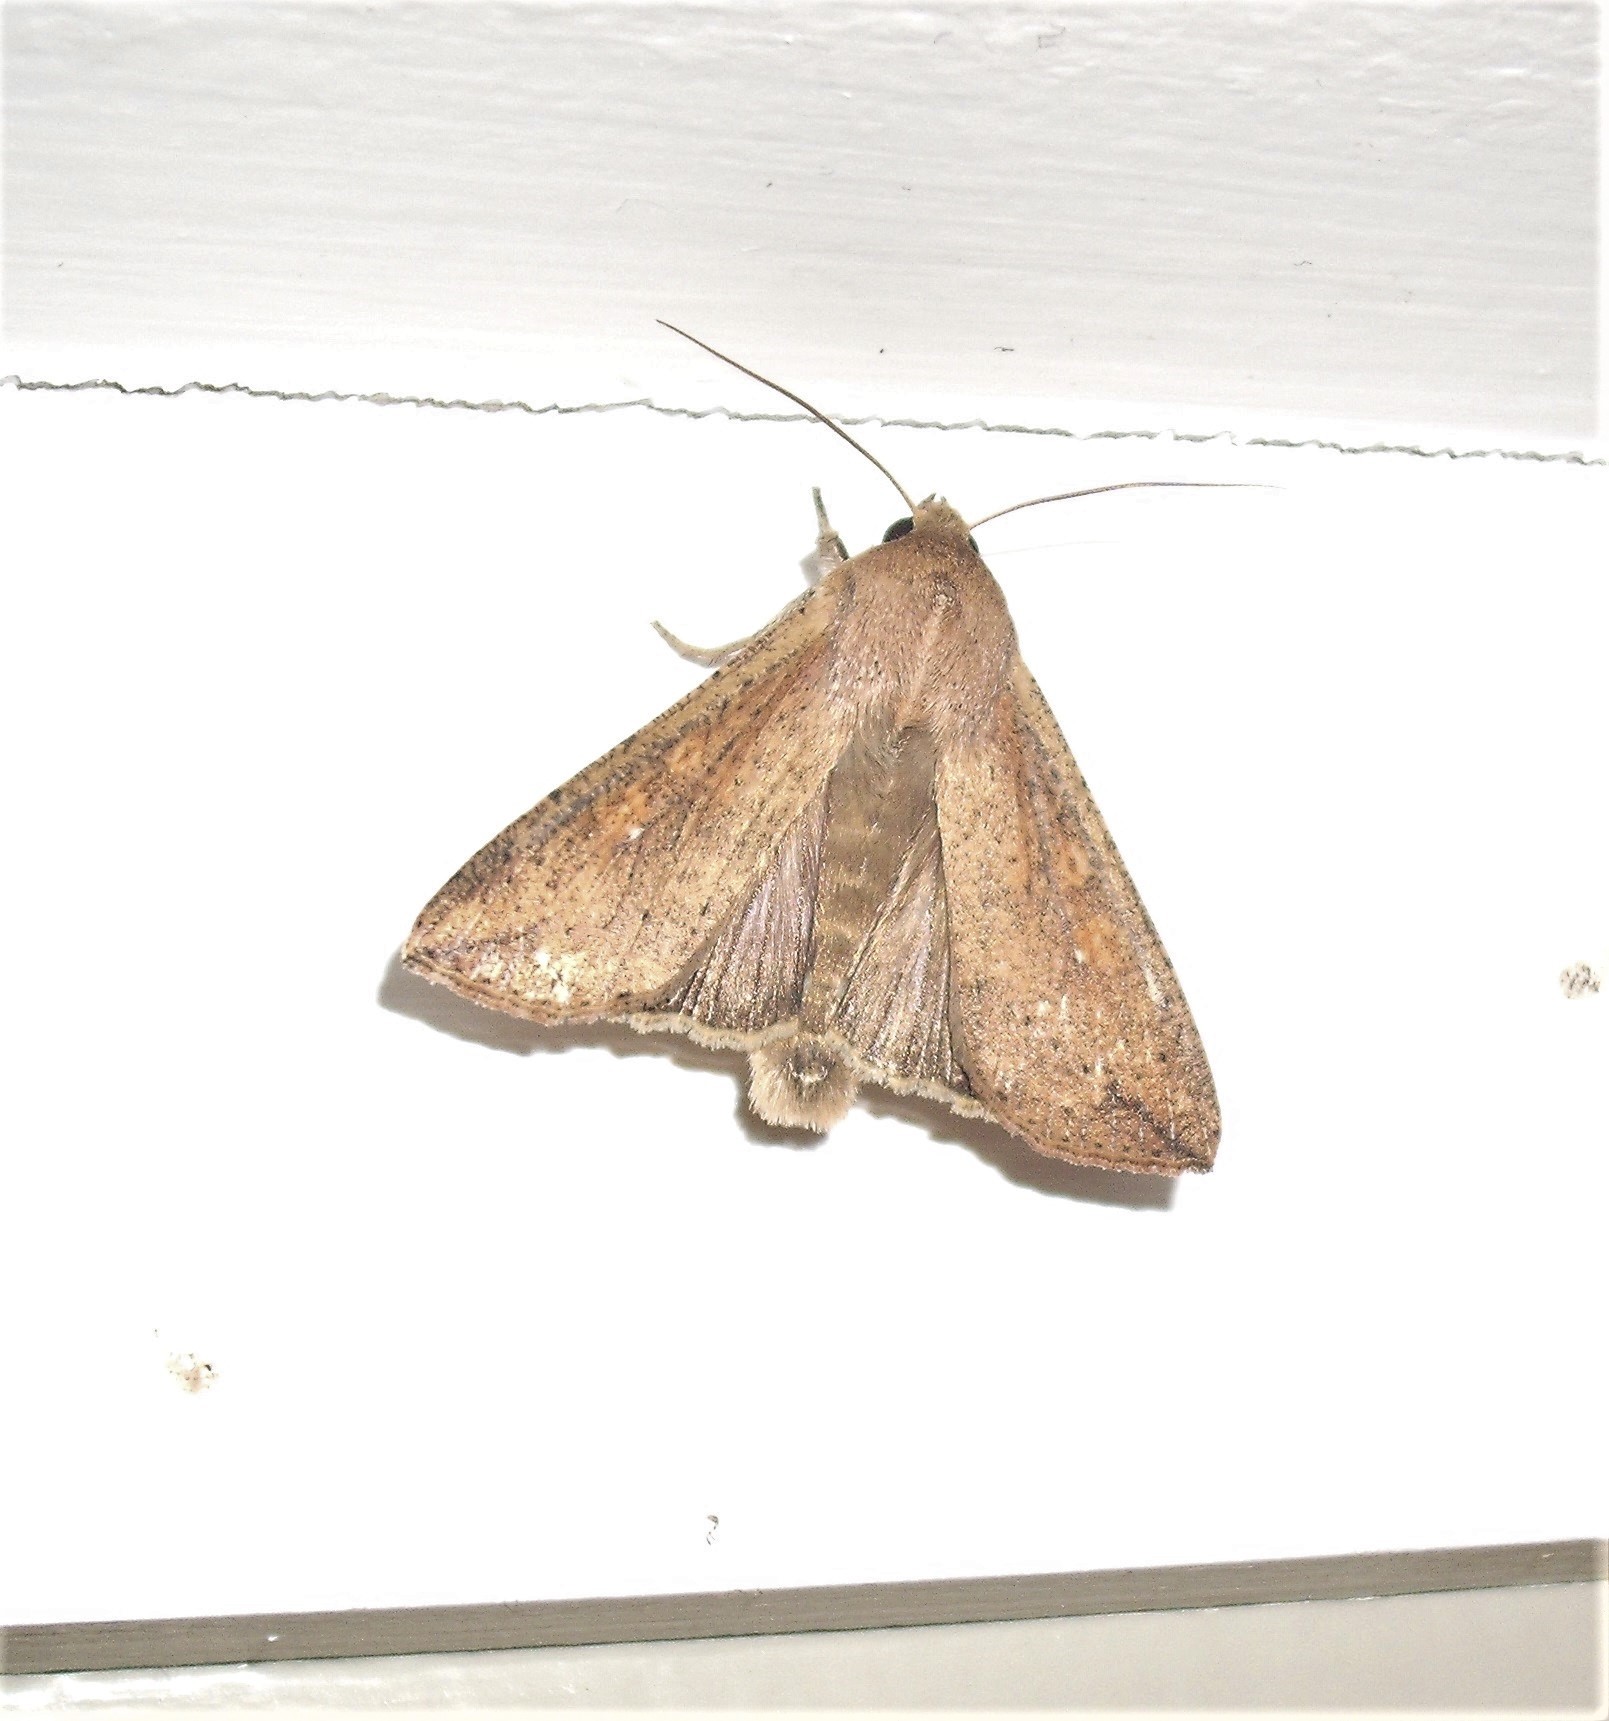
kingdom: Animalia
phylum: Arthropoda
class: Insecta
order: Lepidoptera
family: Noctuidae
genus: Mythimna
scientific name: Mythimna separata
